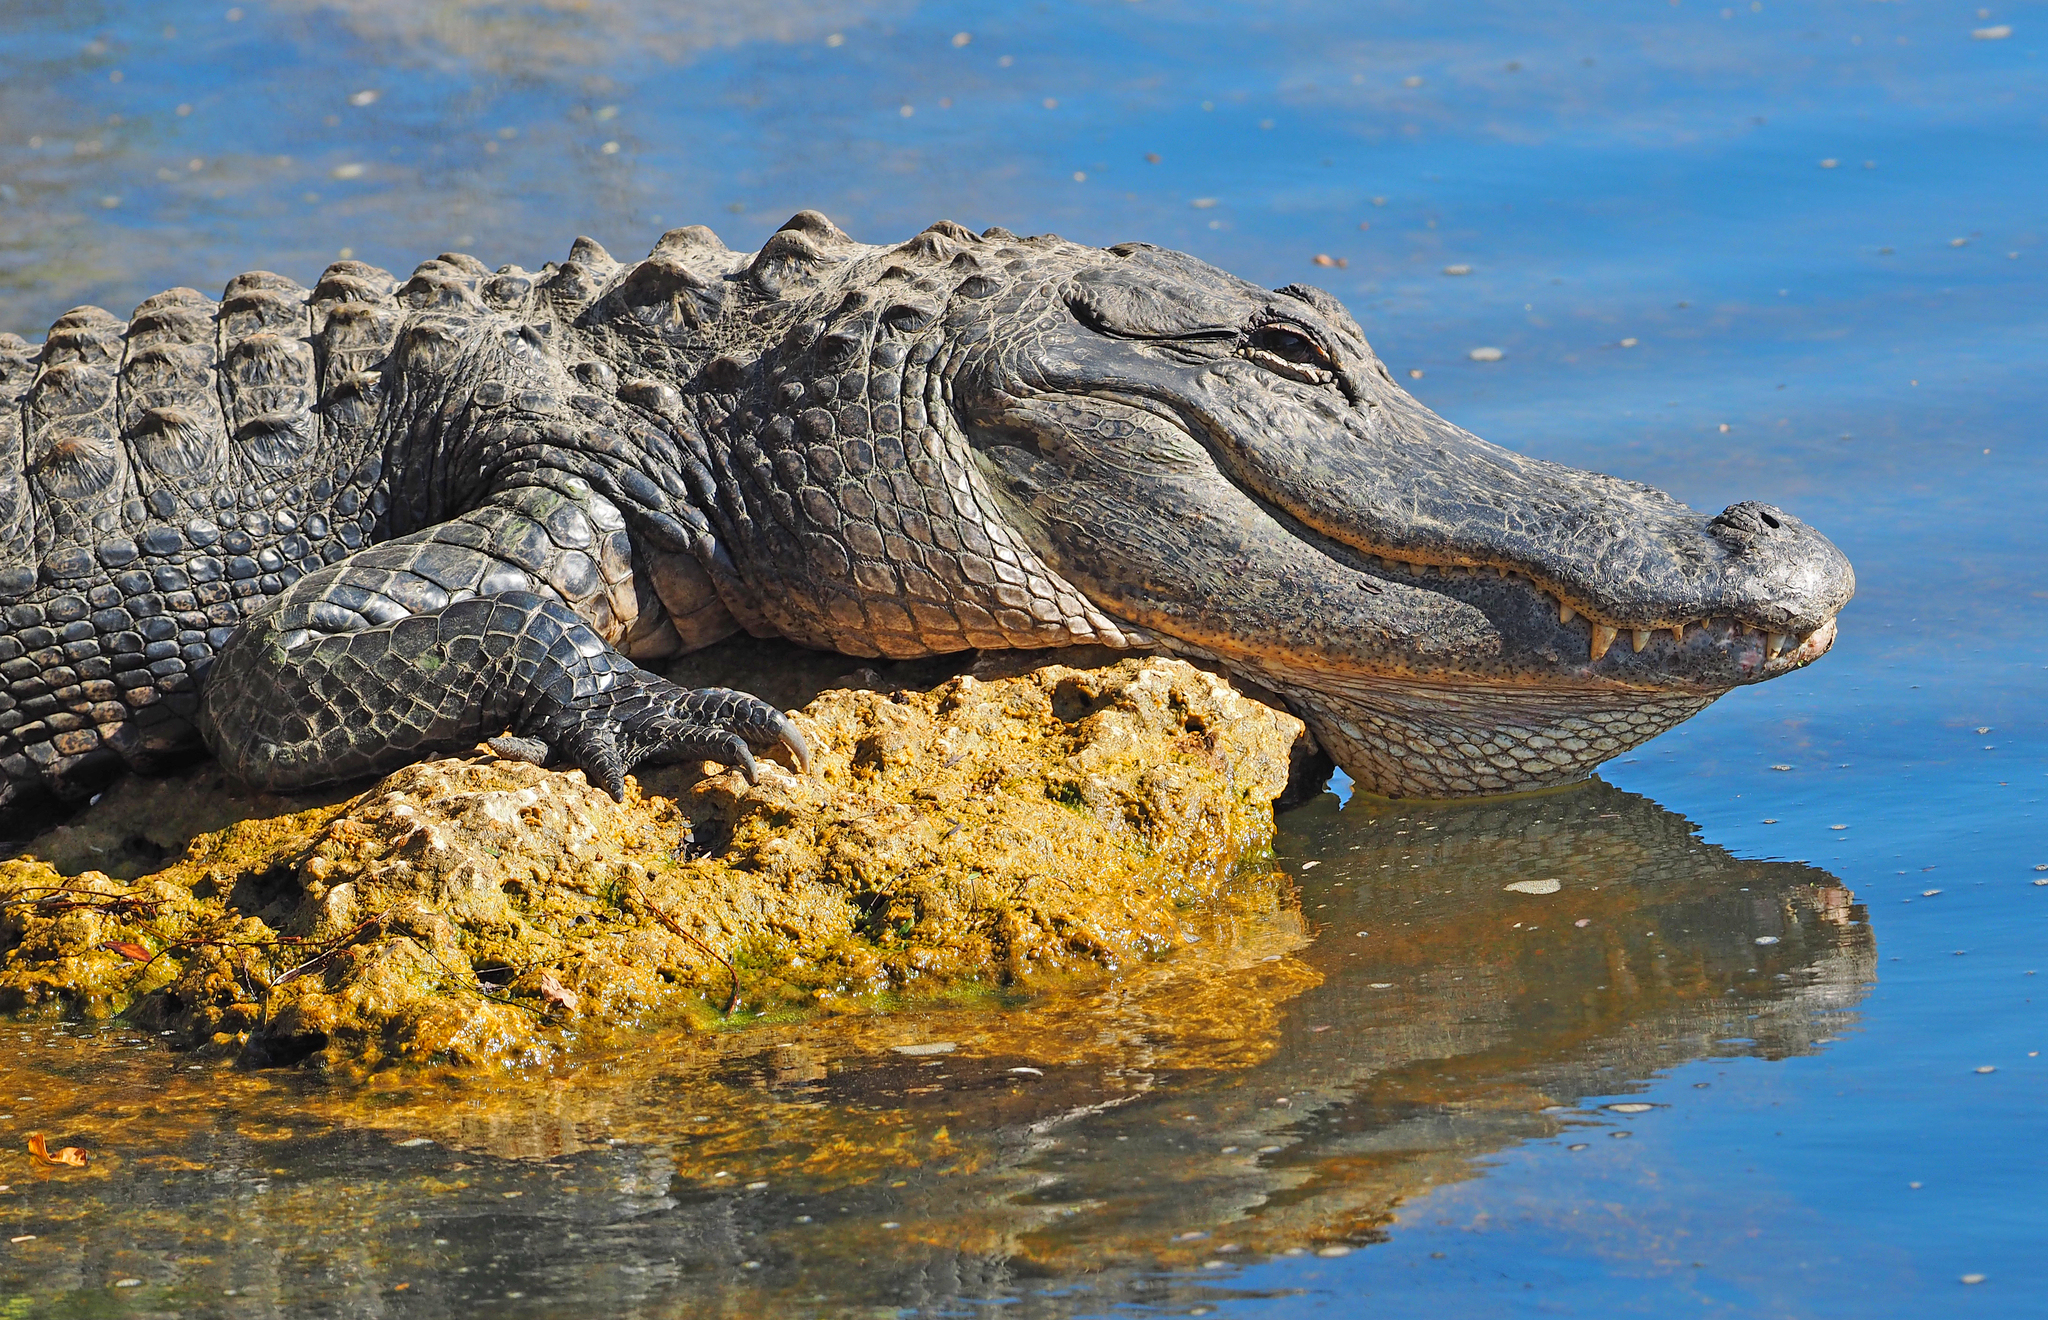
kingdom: Animalia
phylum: Chordata
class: Crocodylia
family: Alligatoridae
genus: Alligator
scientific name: Alligator mississippiensis
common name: American alligator
